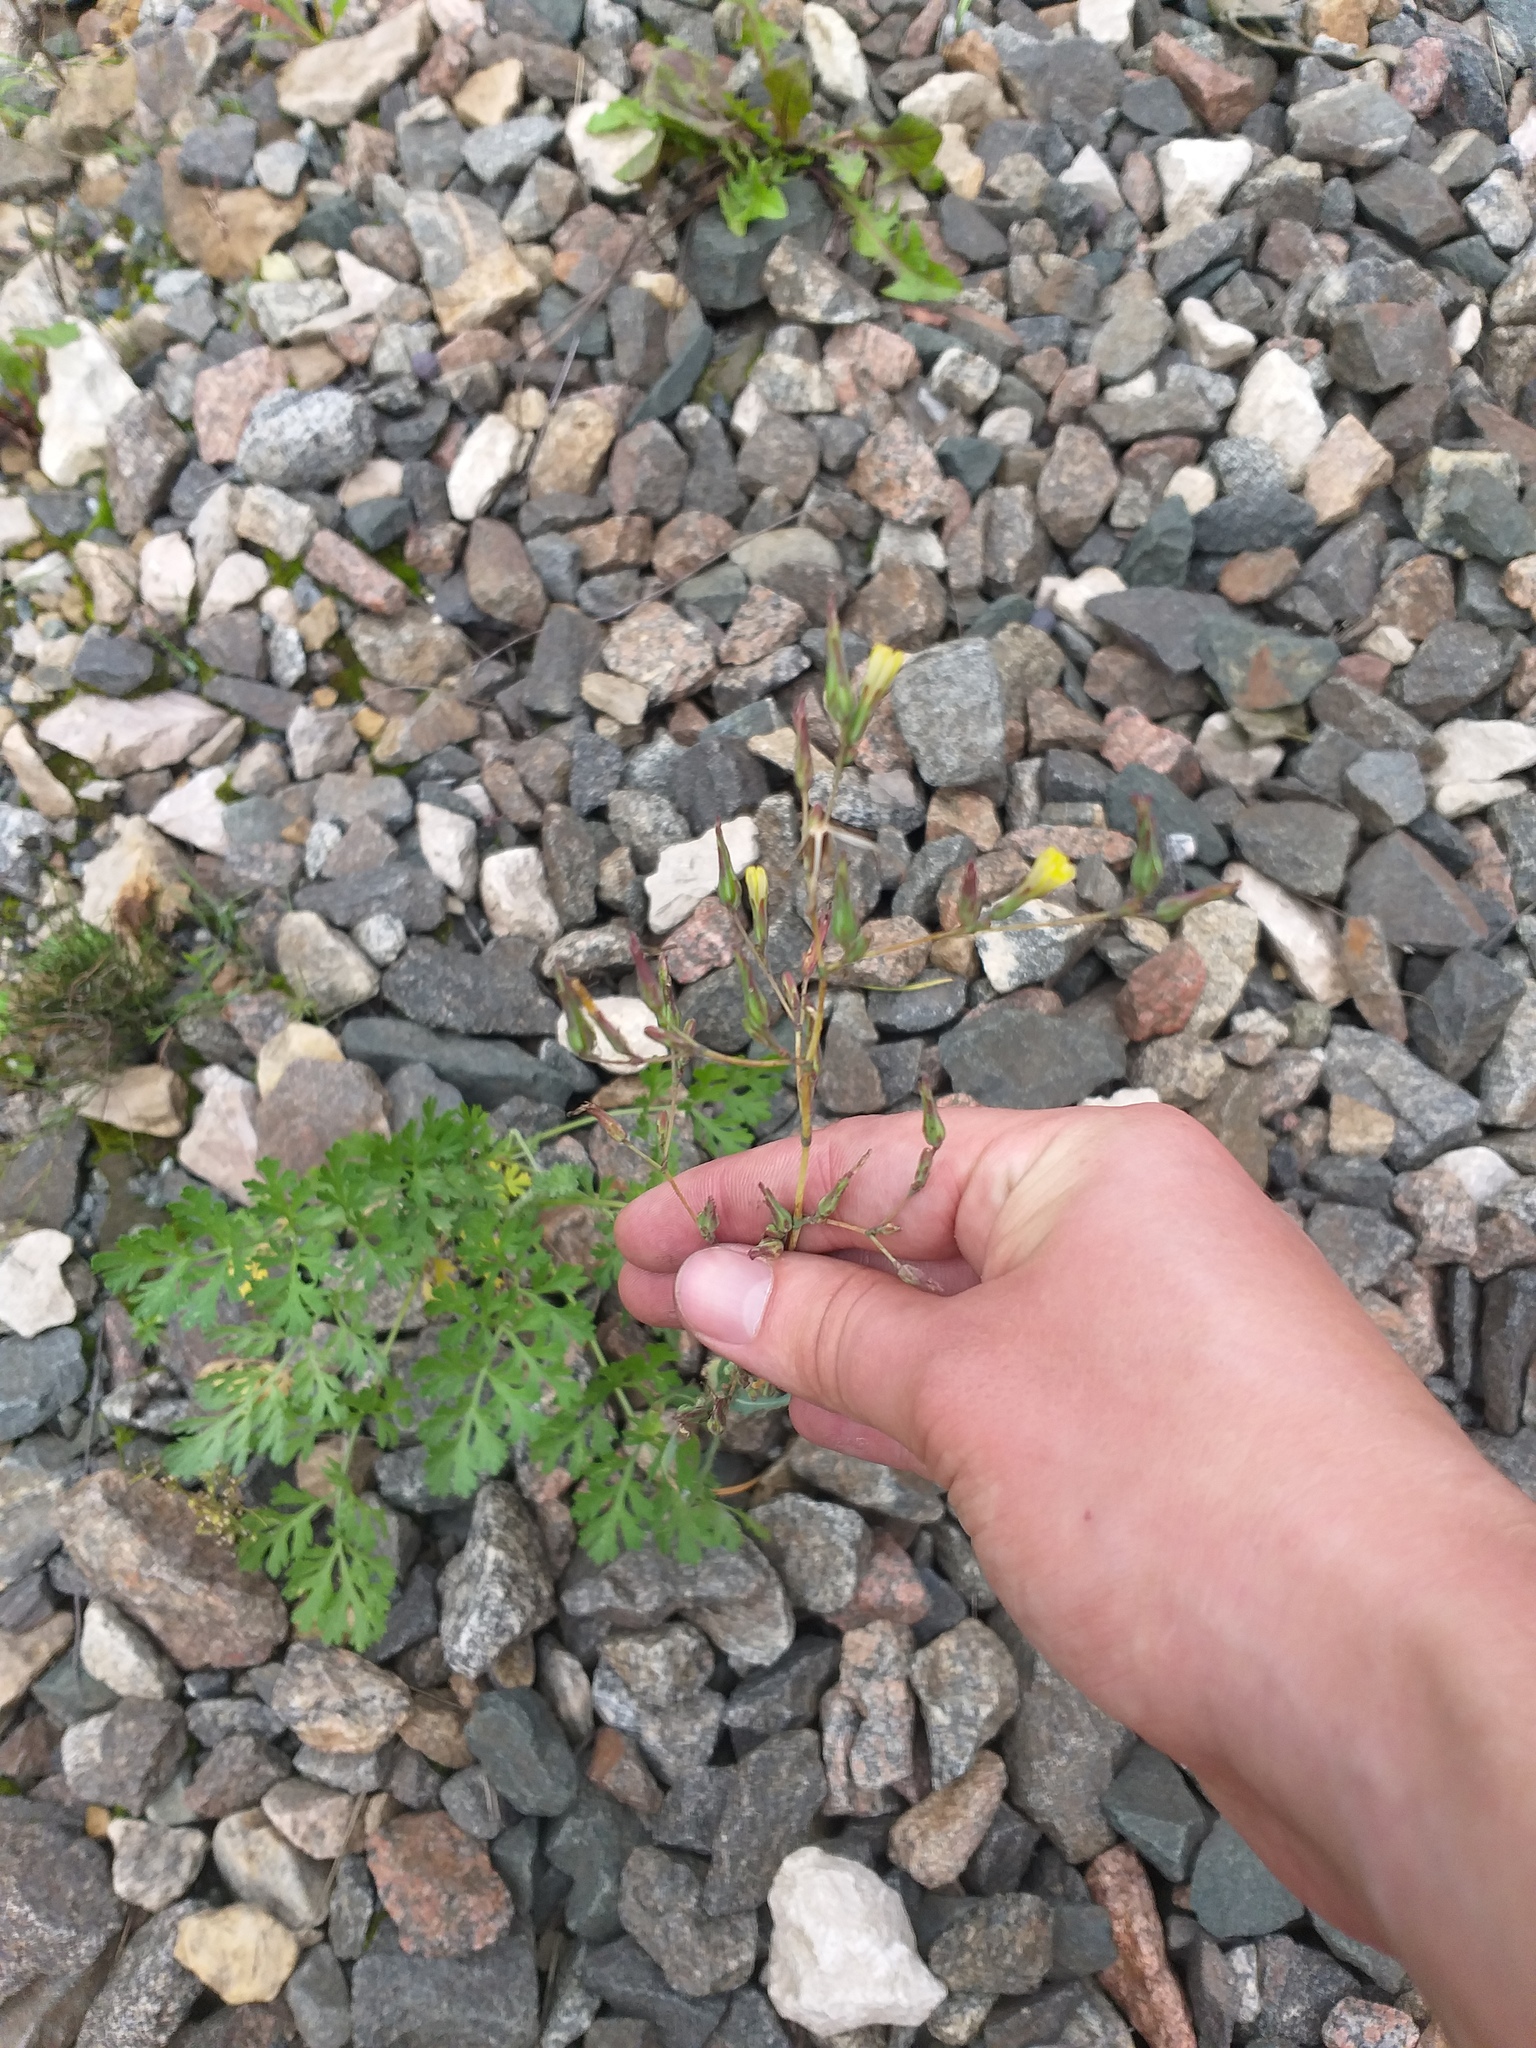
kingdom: Plantae
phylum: Tracheophyta
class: Magnoliopsida
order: Asterales
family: Asteraceae
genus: Lactuca
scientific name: Lactuca serriola
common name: Prickly lettuce
